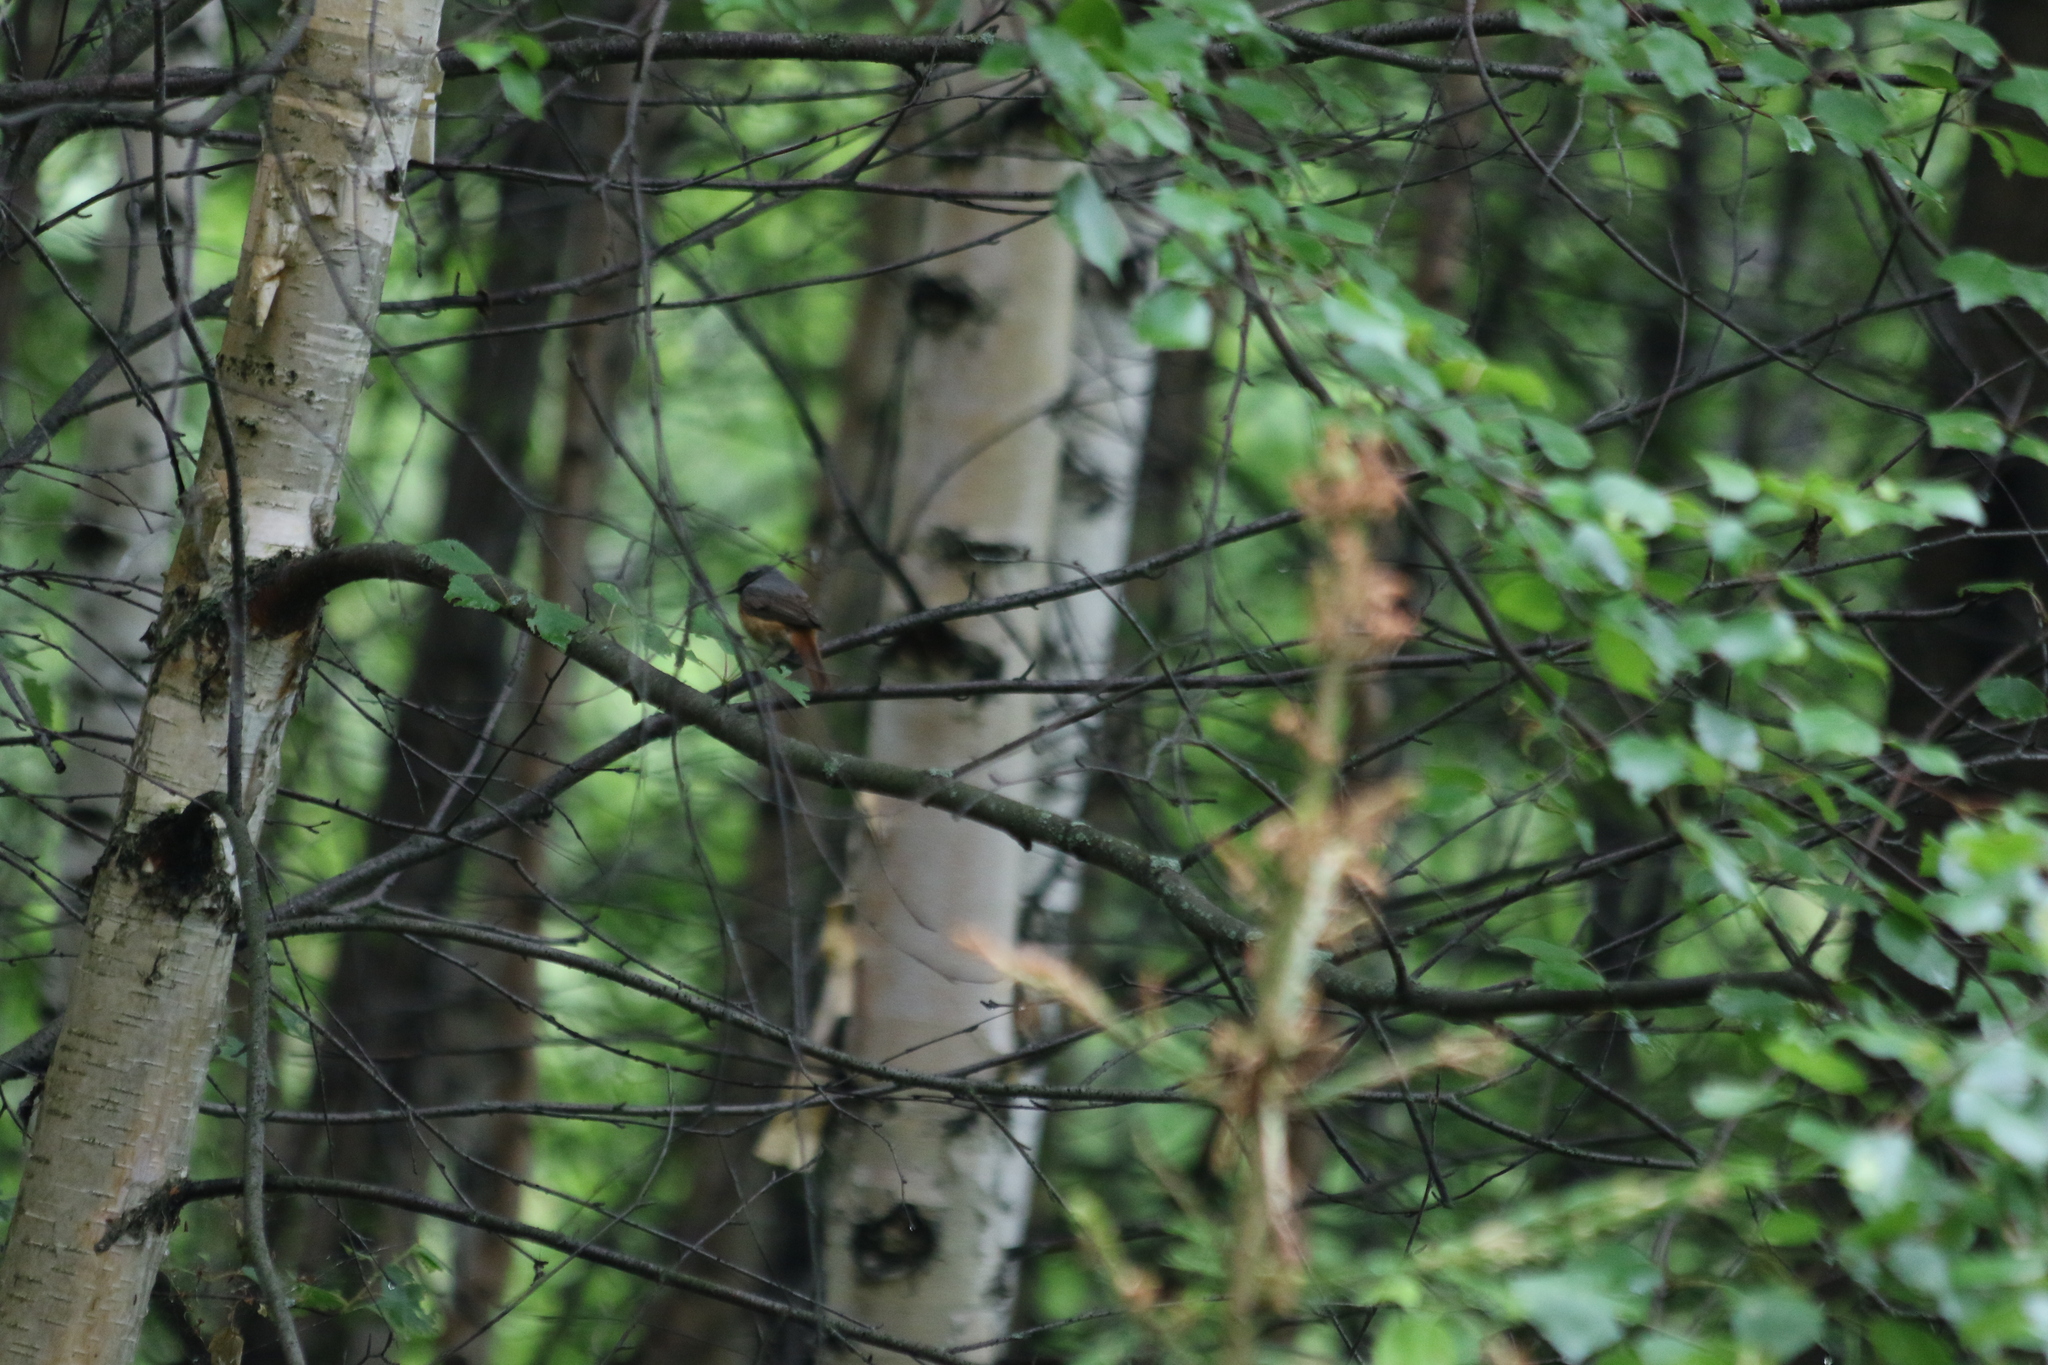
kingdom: Animalia
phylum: Chordata
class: Aves
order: Passeriformes
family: Muscicapidae
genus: Phoenicurus
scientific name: Phoenicurus phoenicurus
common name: Common redstart
